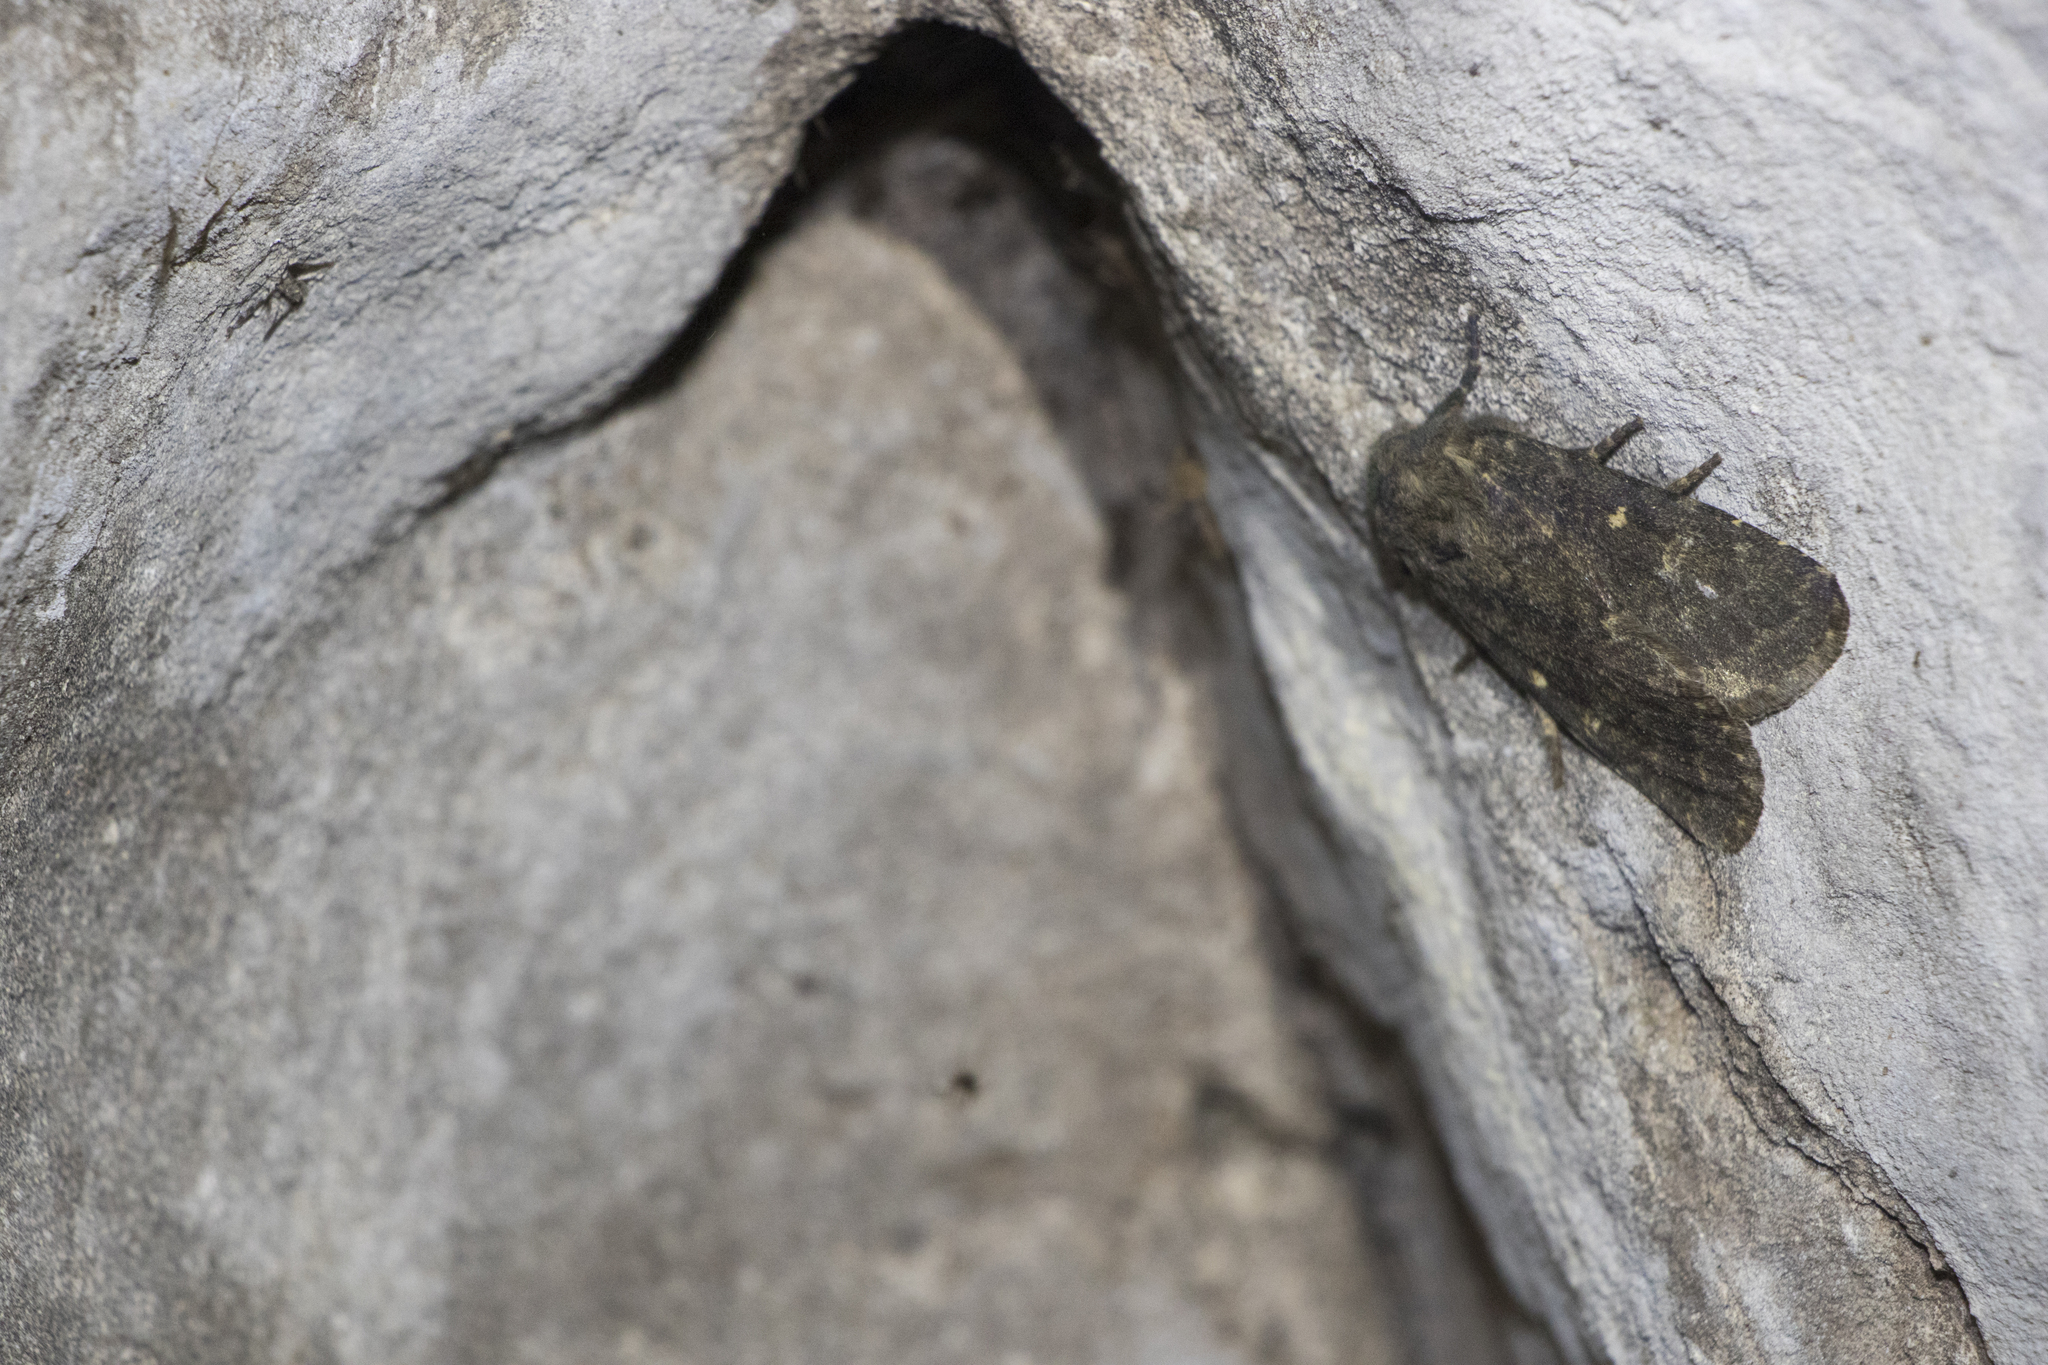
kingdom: Animalia
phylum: Arthropoda
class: Insecta
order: Lepidoptera
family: Noctuidae
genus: Dasypolia
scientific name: Dasypolia templi
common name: Brindled ochre
